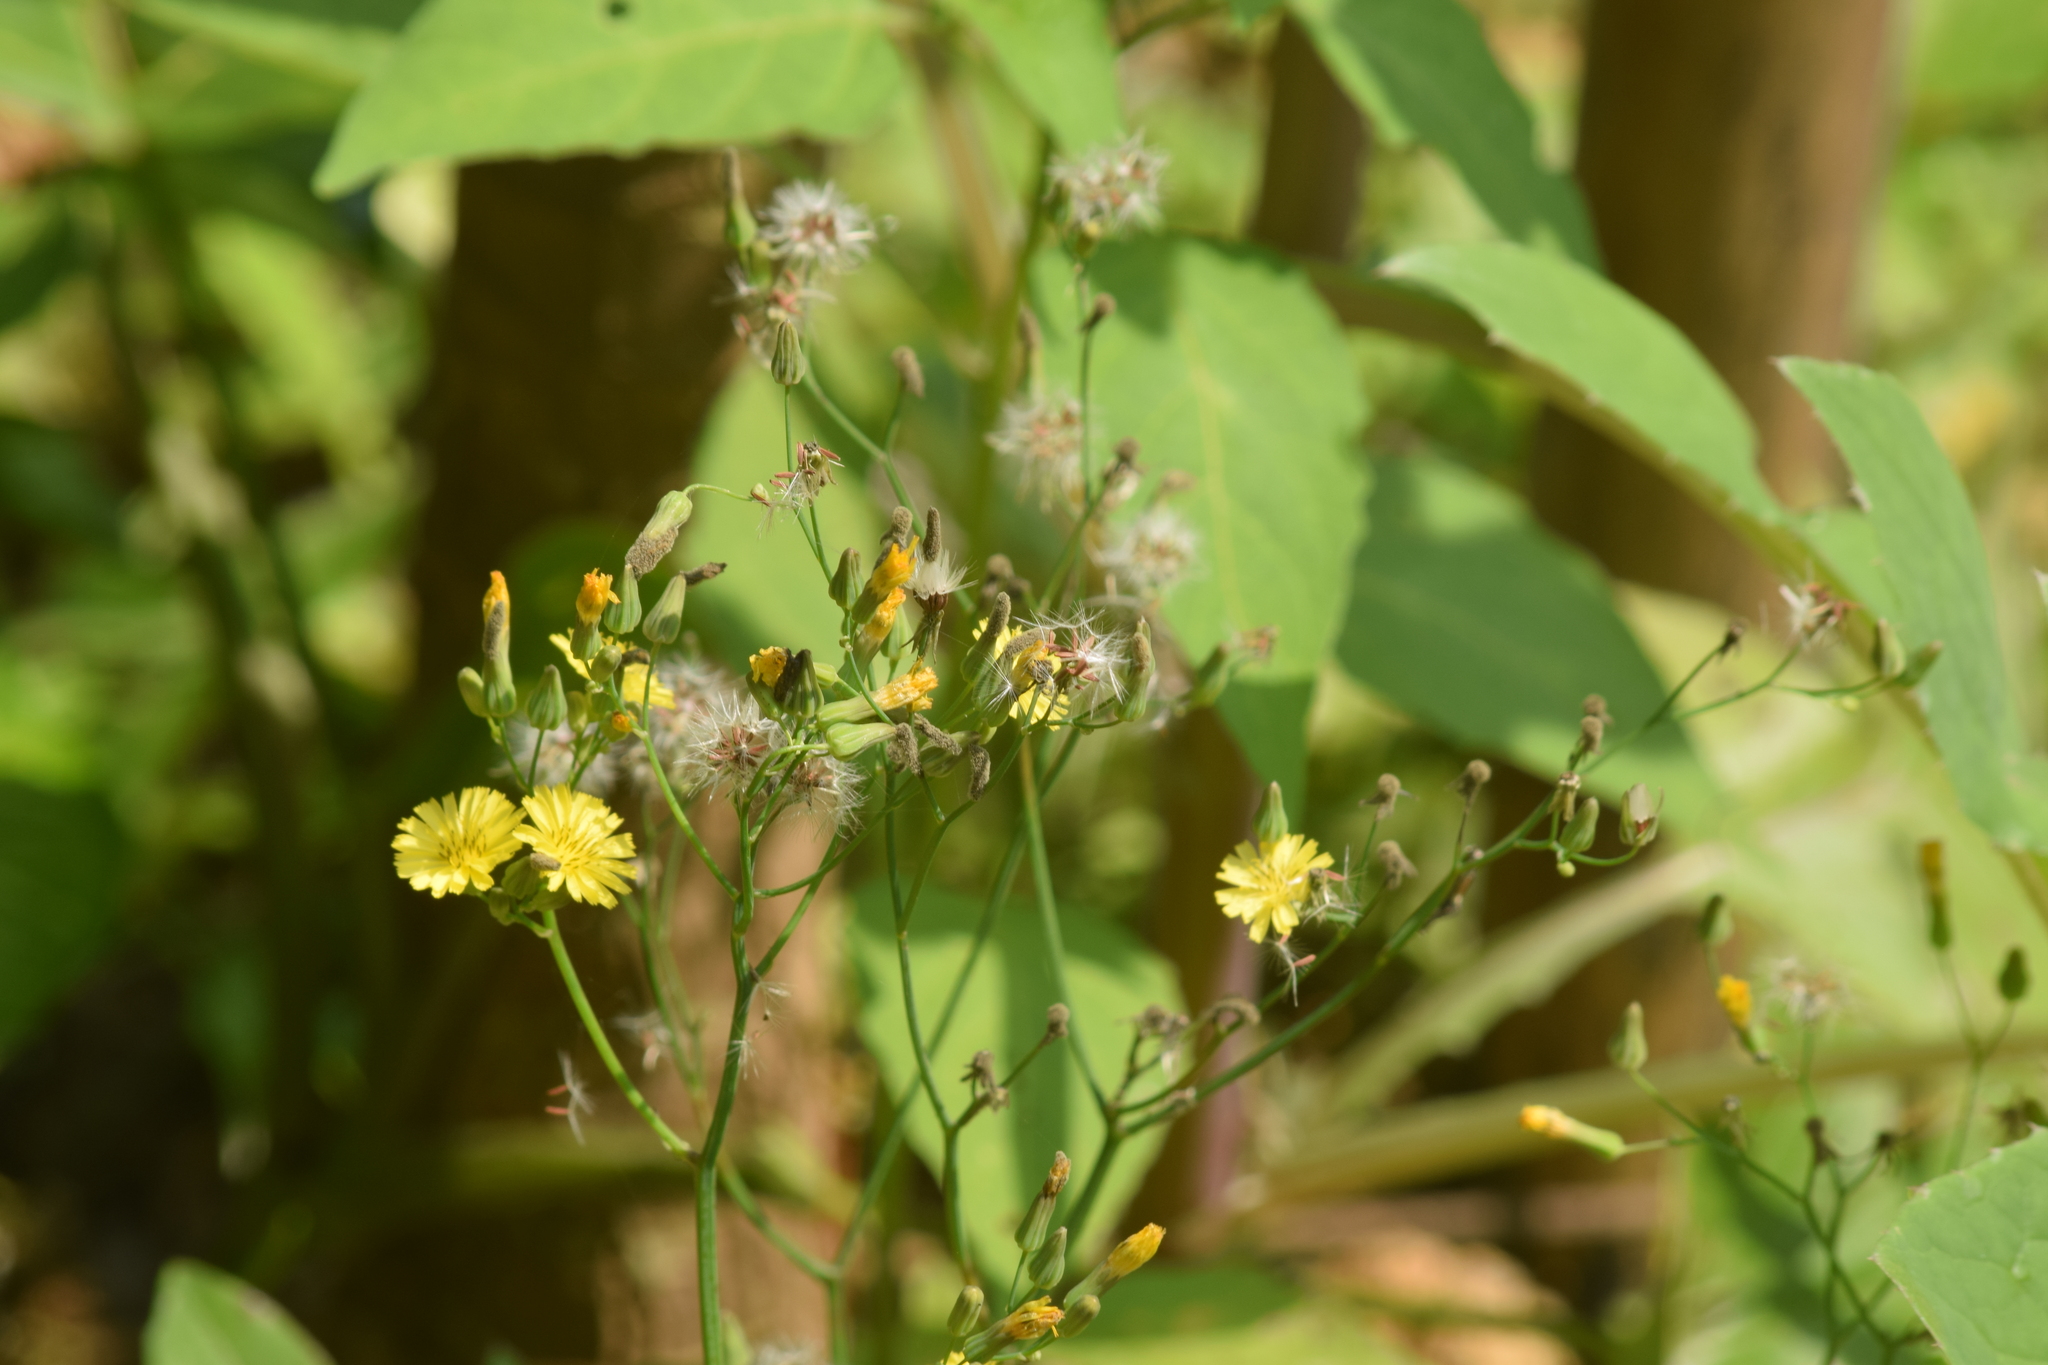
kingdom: Plantae
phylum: Tracheophyta
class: Magnoliopsida
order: Asterales
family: Asteraceae
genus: Youngia
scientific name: Youngia japonica
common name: Oriental false hawksbeard
